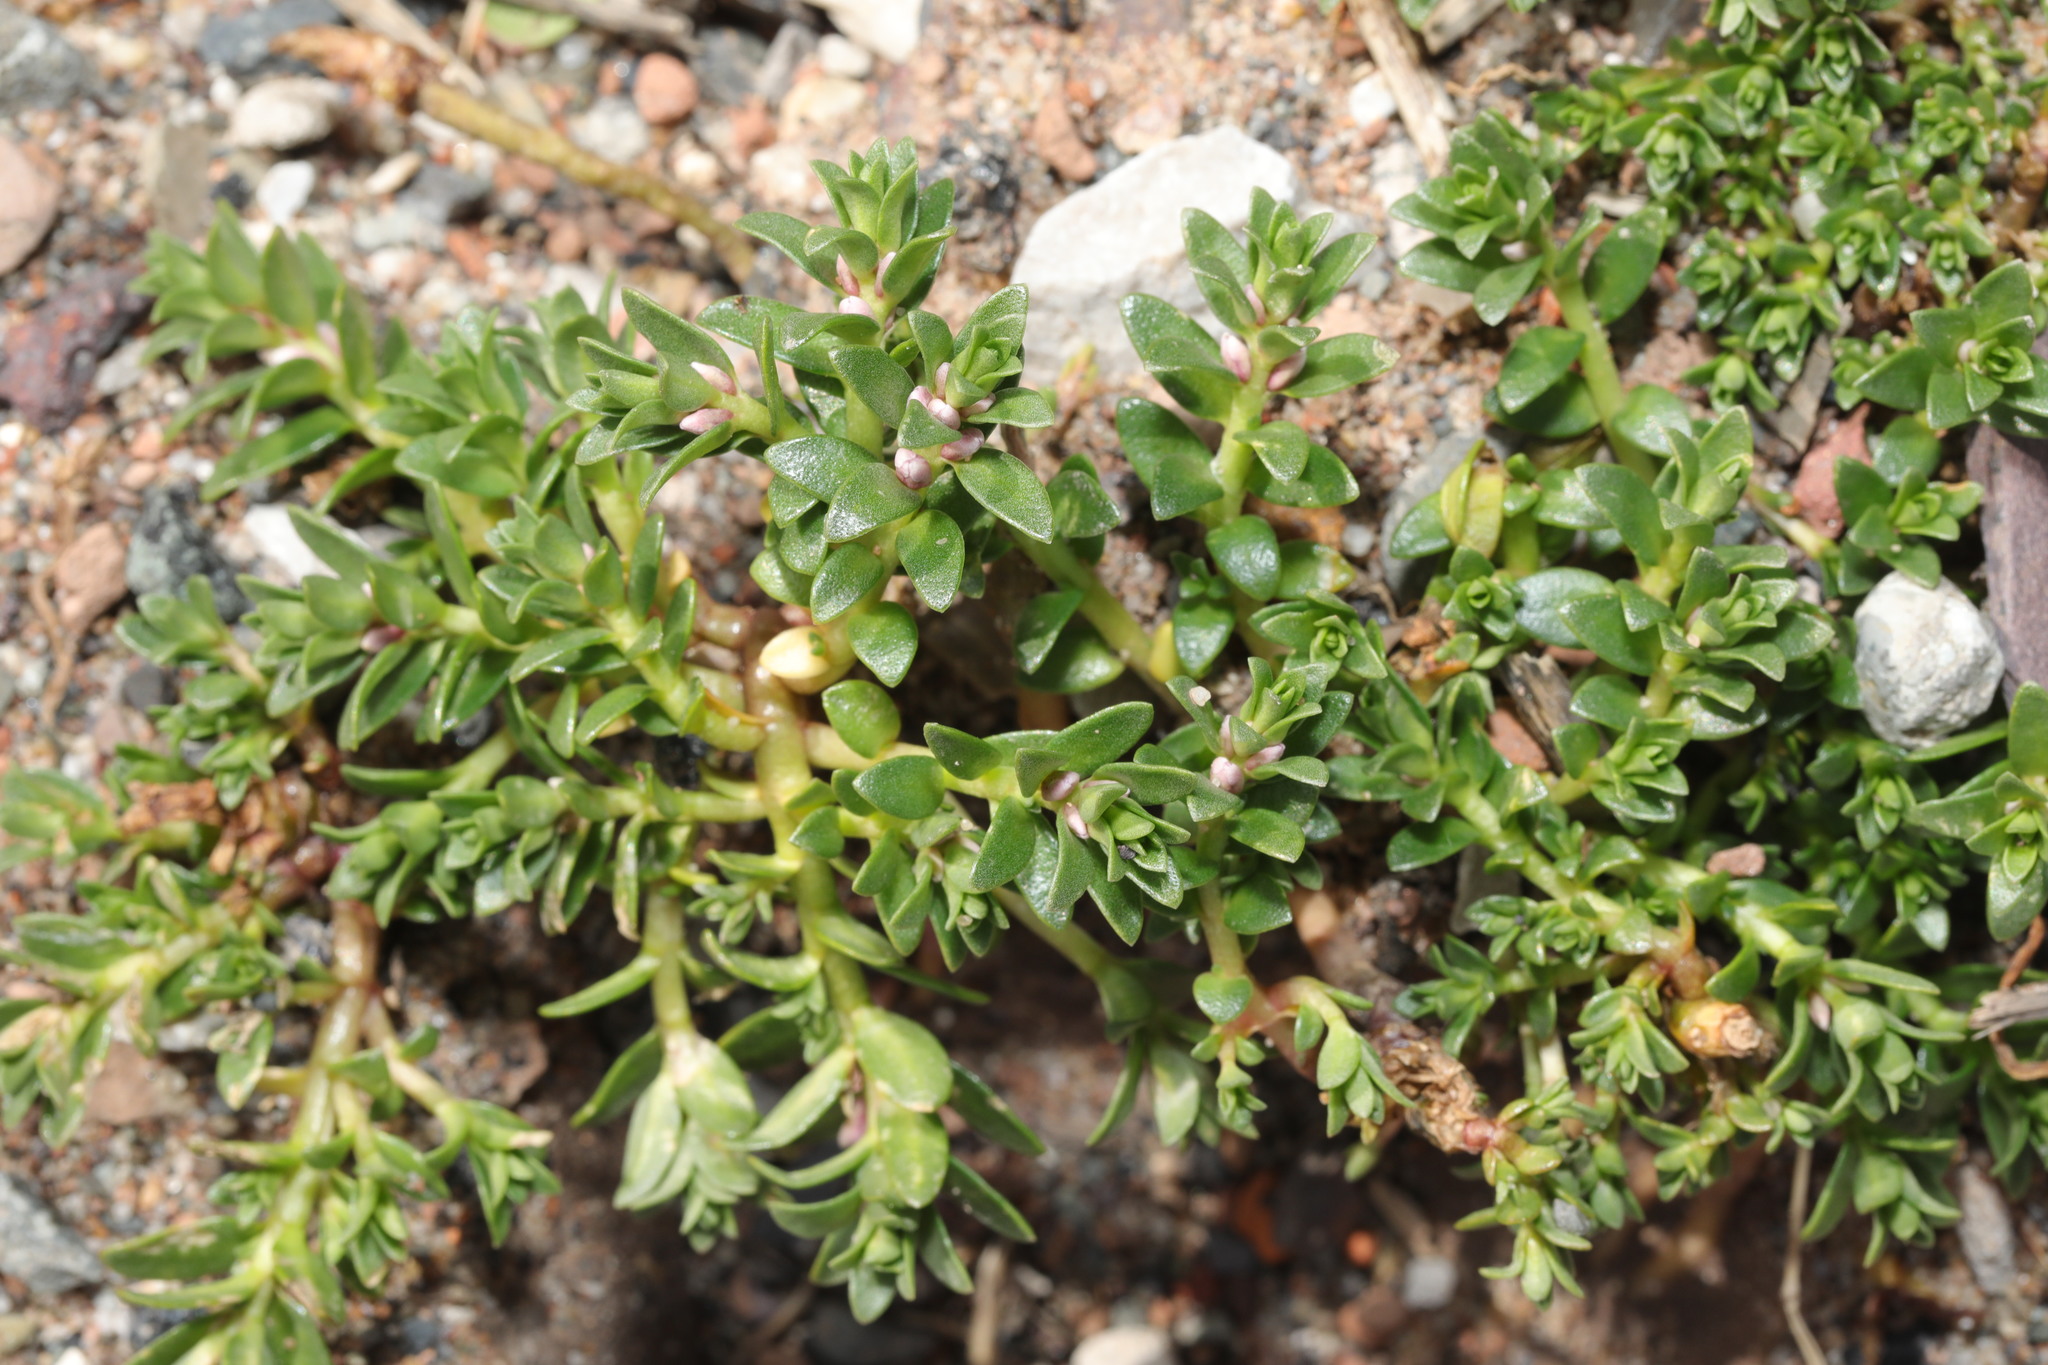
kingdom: Plantae
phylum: Tracheophyta
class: Magnoliopsida
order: Ericales
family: Primulaceae
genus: Lysimachia
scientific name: Lysimachia maritima
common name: Sea milkwort
